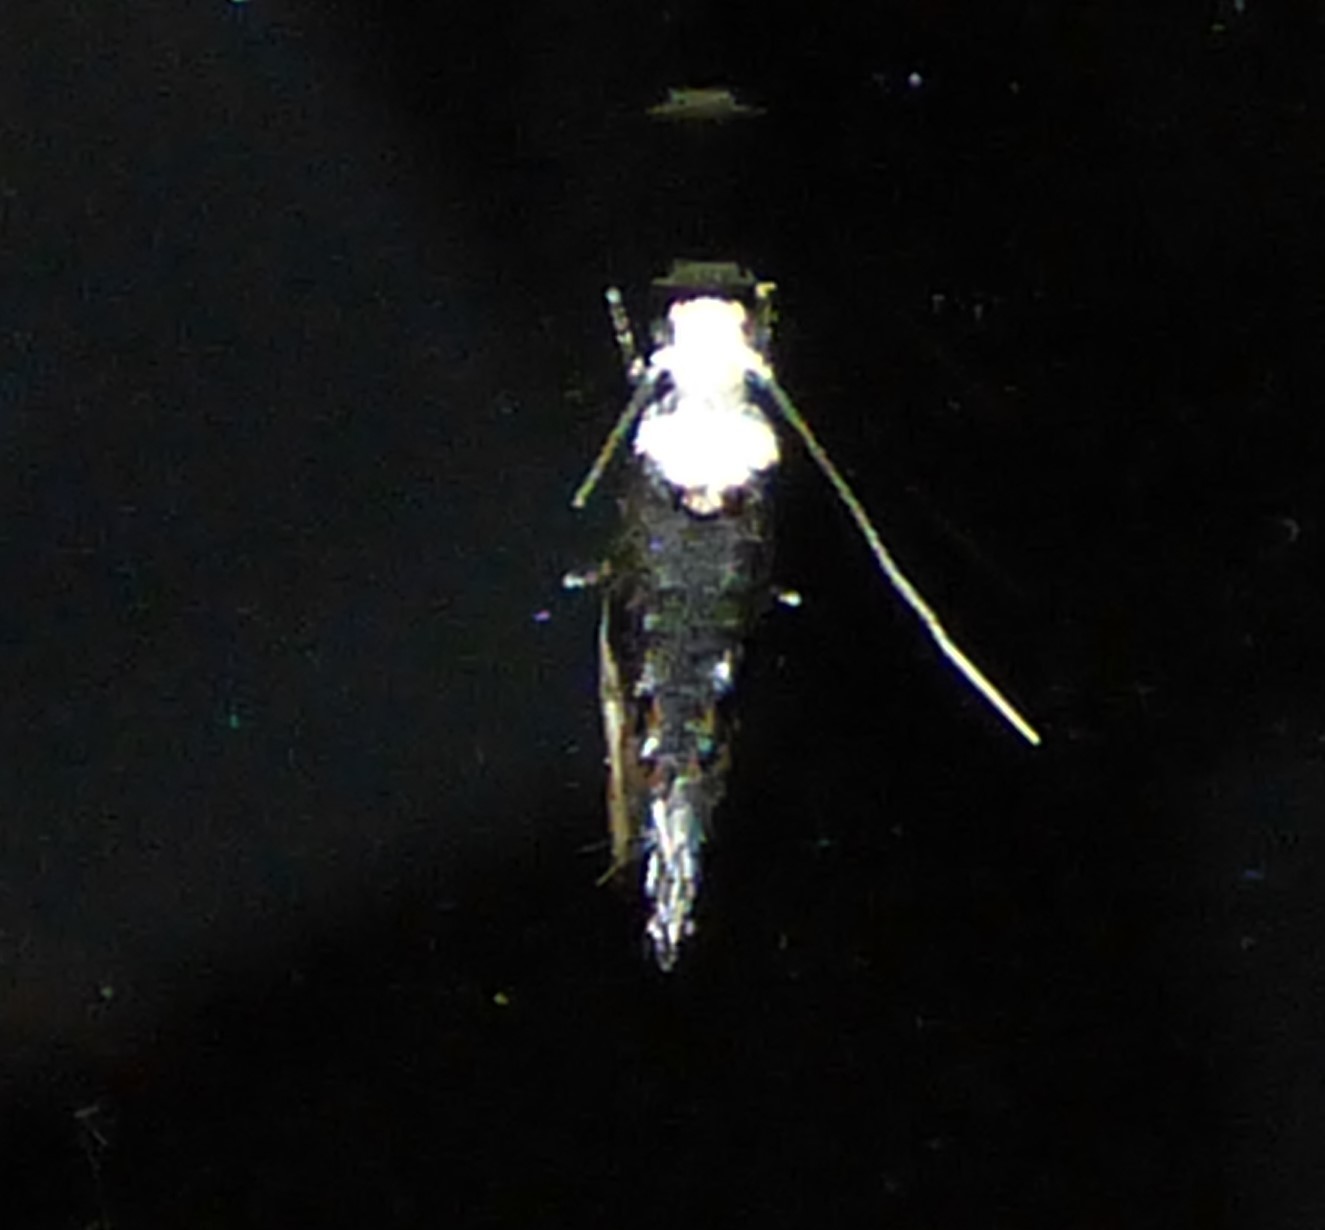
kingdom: Animalia
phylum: Arthropoda
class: Insecta
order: Lepidoptera
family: Tineidae
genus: Monopis
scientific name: Monopis longella
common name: Pavlovski's monopis moth
